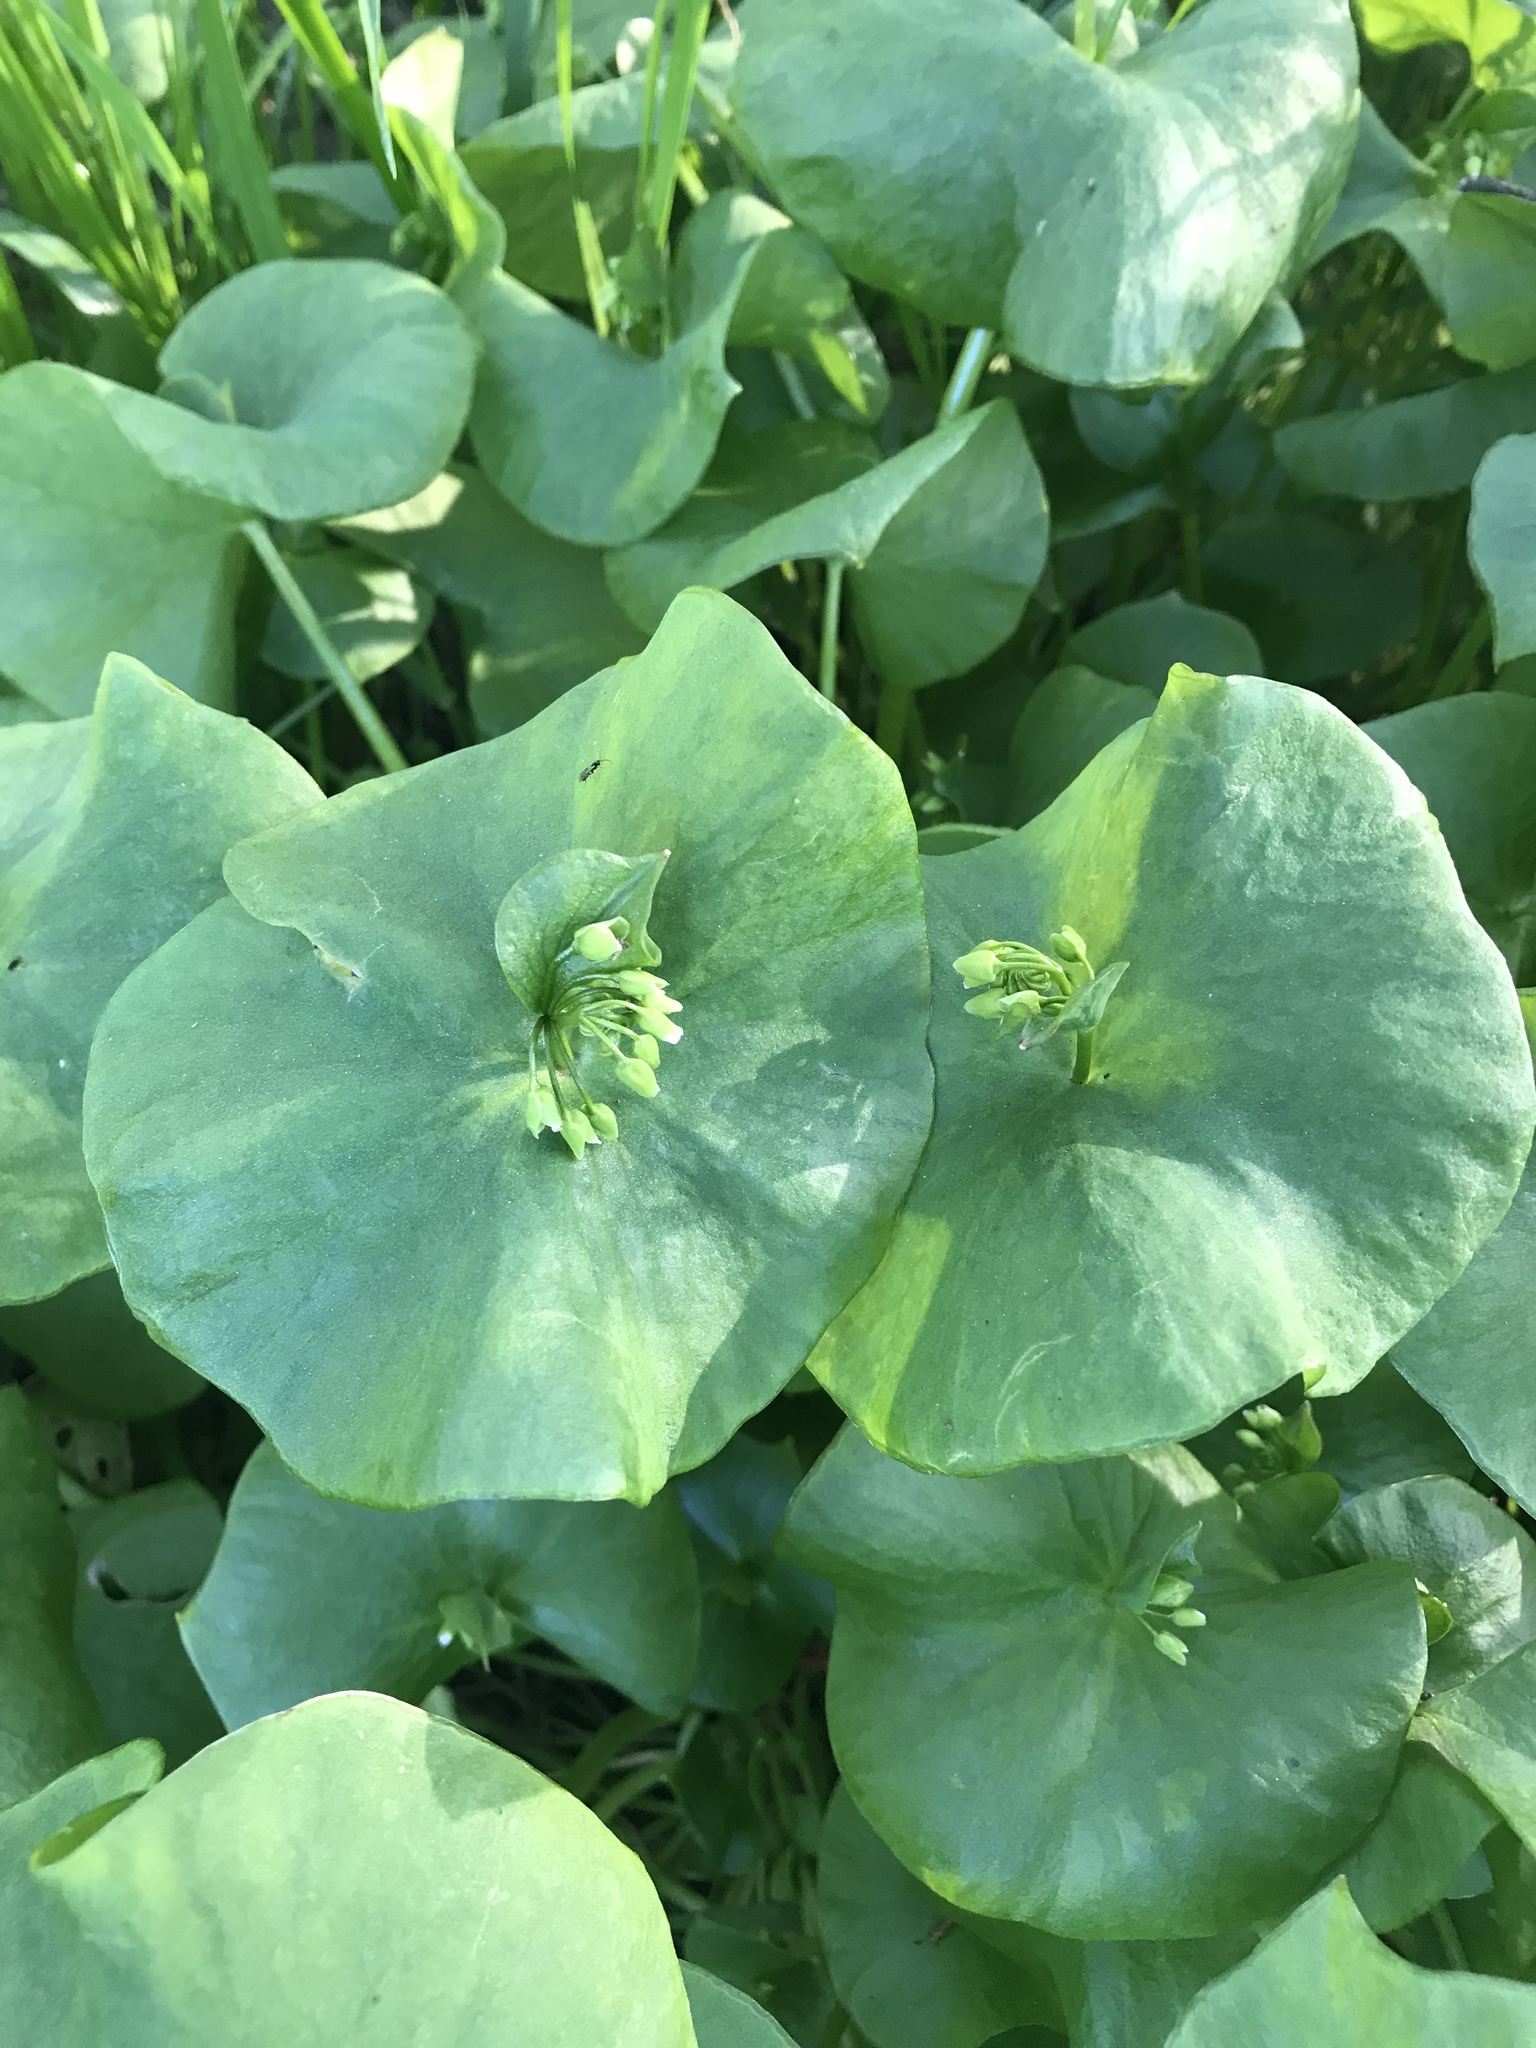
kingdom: Plantae
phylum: Tracheophyta
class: Magnoliopsida
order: Caryophyllales
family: Montiaceae
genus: Claytonia
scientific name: Claytonia perfoliata
